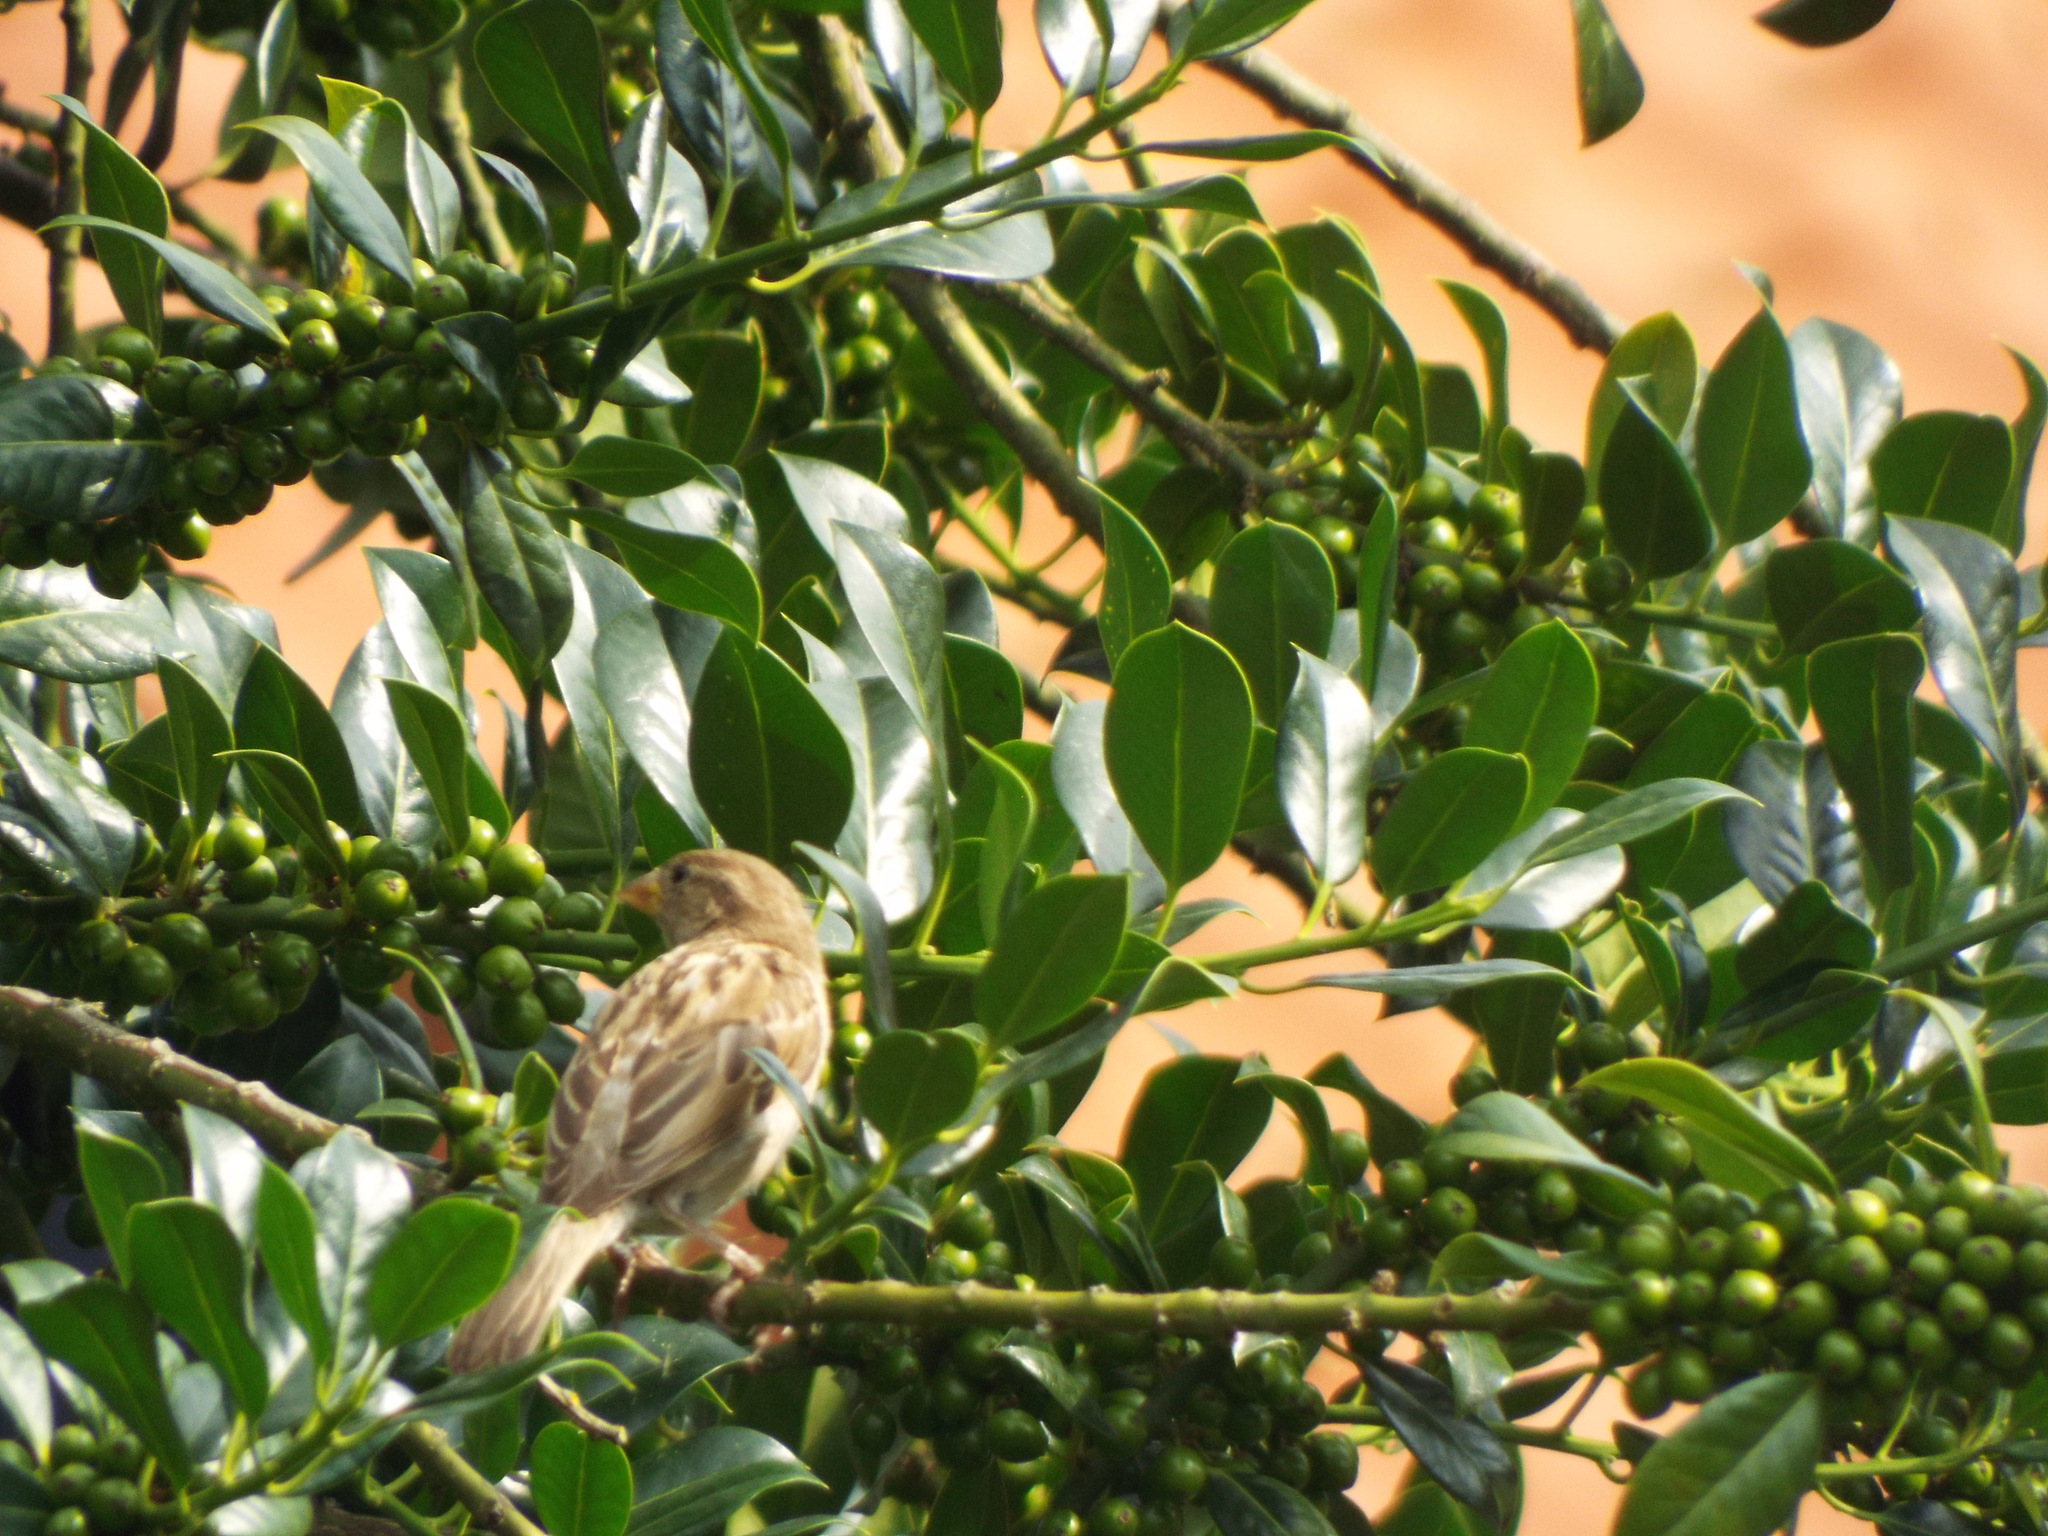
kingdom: Animalia
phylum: Chordata
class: Aves
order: Passeriformes
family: Passeridae
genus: Passer
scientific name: Passer domesticus
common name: House sparrow
